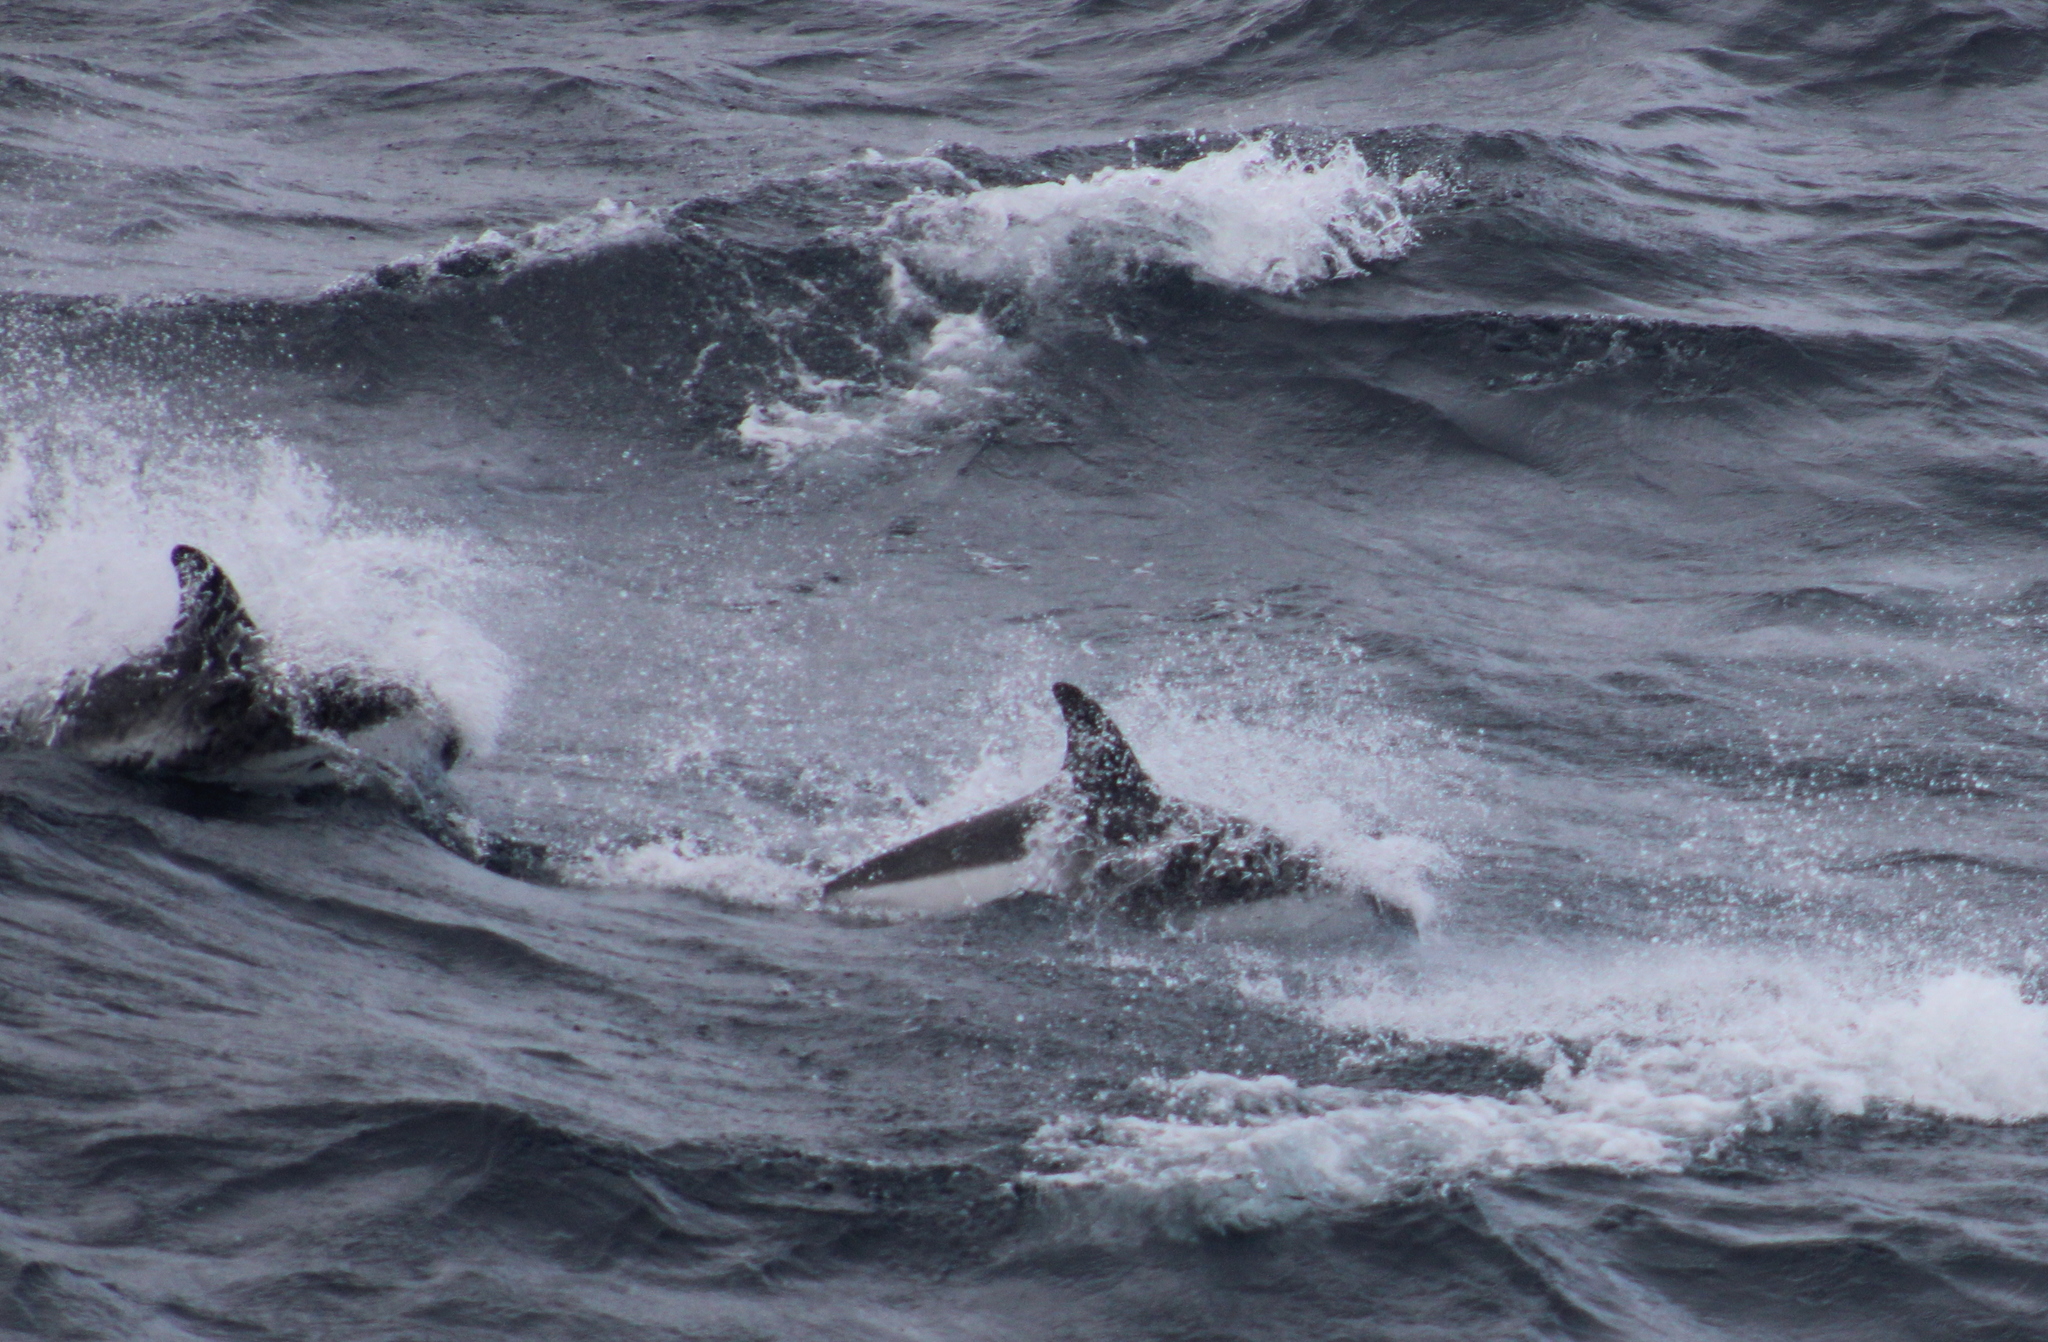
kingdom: Animalia
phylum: Chordata
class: Mammalia
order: Cetacea
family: Delphinidae
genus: Lagenorhynchus
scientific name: Lagenorhynchus australis
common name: Peale's dolphin
